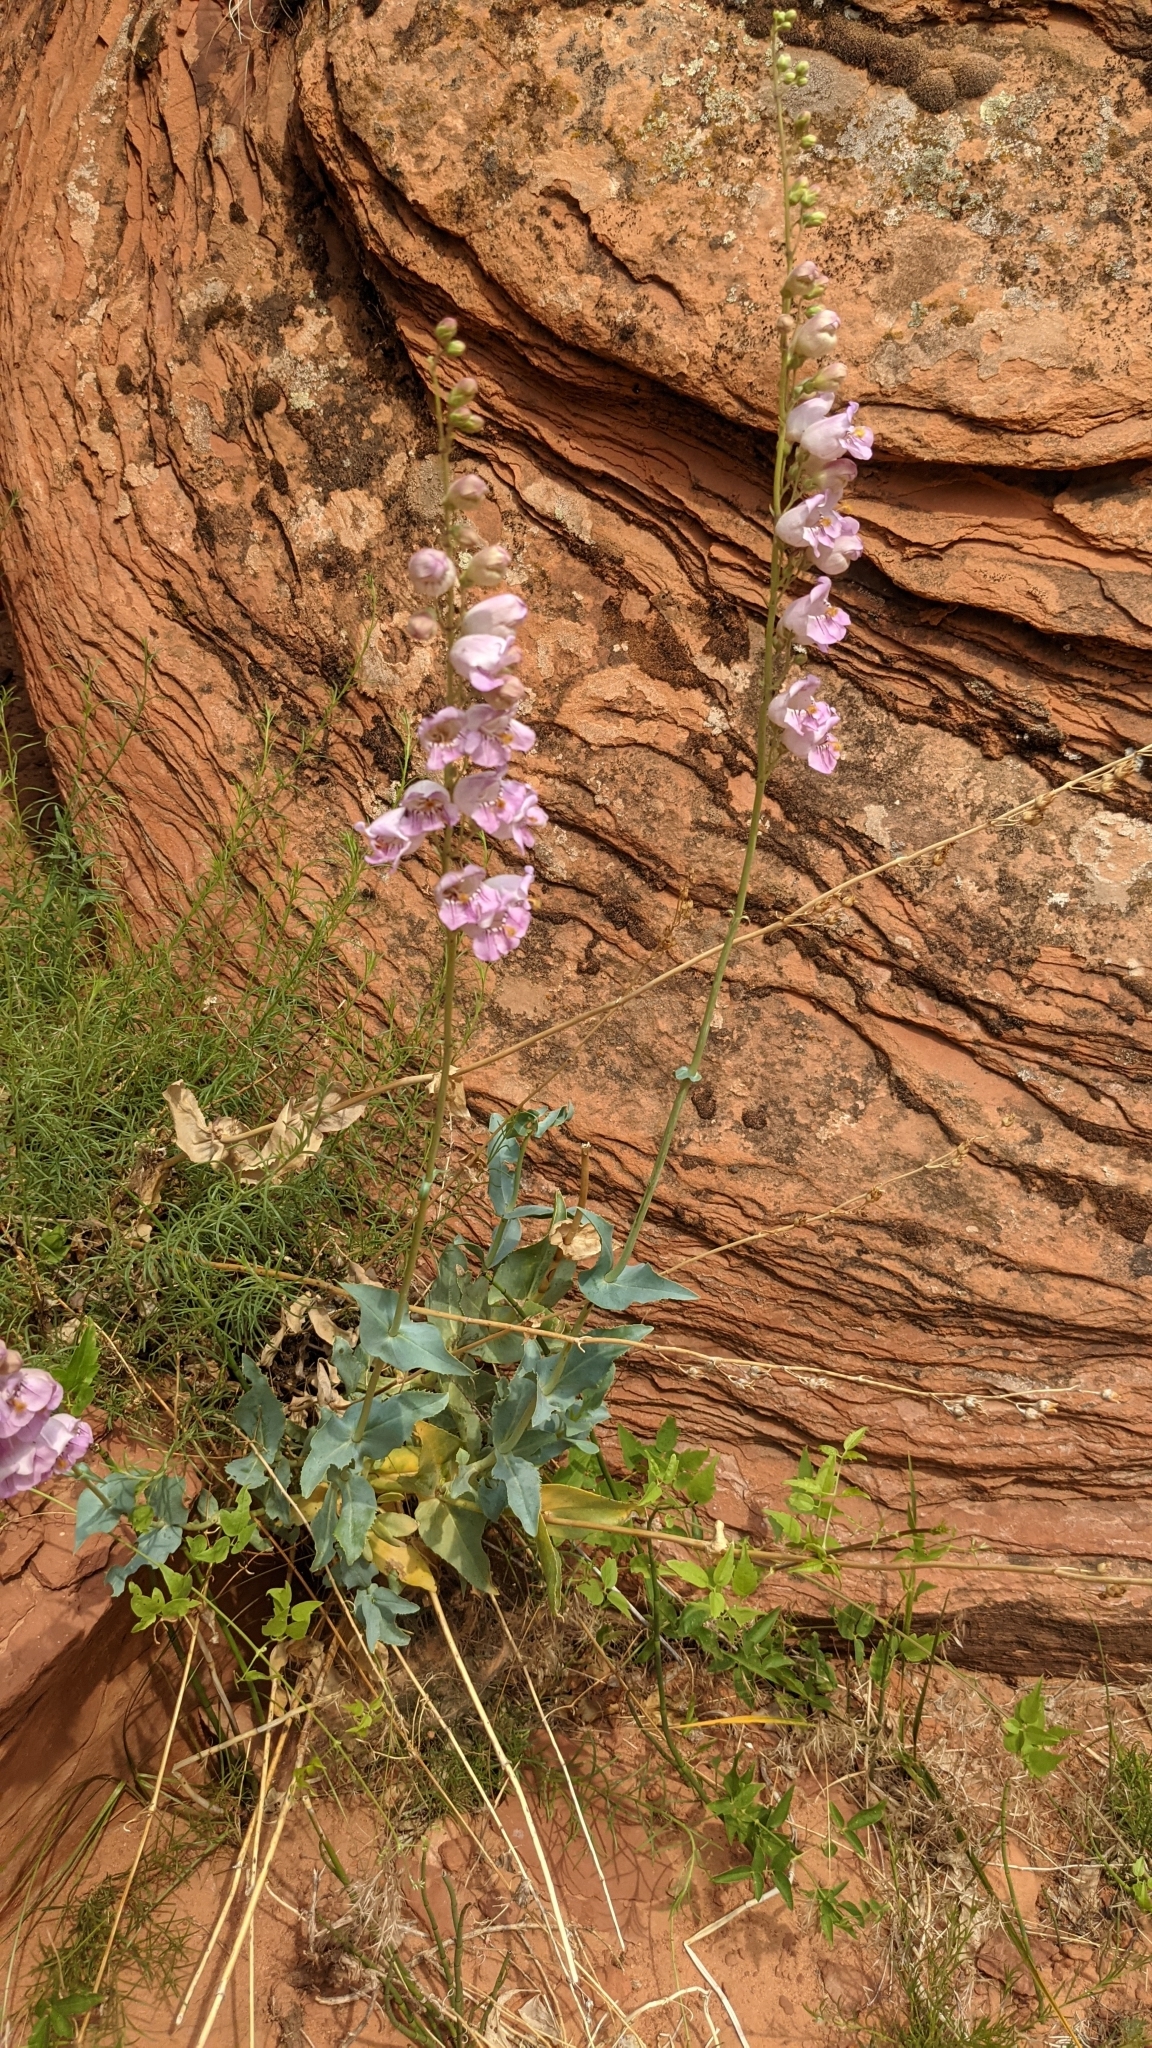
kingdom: Plantae
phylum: Tracheophyta
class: Magnoliopsida
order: Lamiales
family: Plantaginaceae
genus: Penstemon
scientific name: Penstemon palmeri
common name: Palmer penstemon
